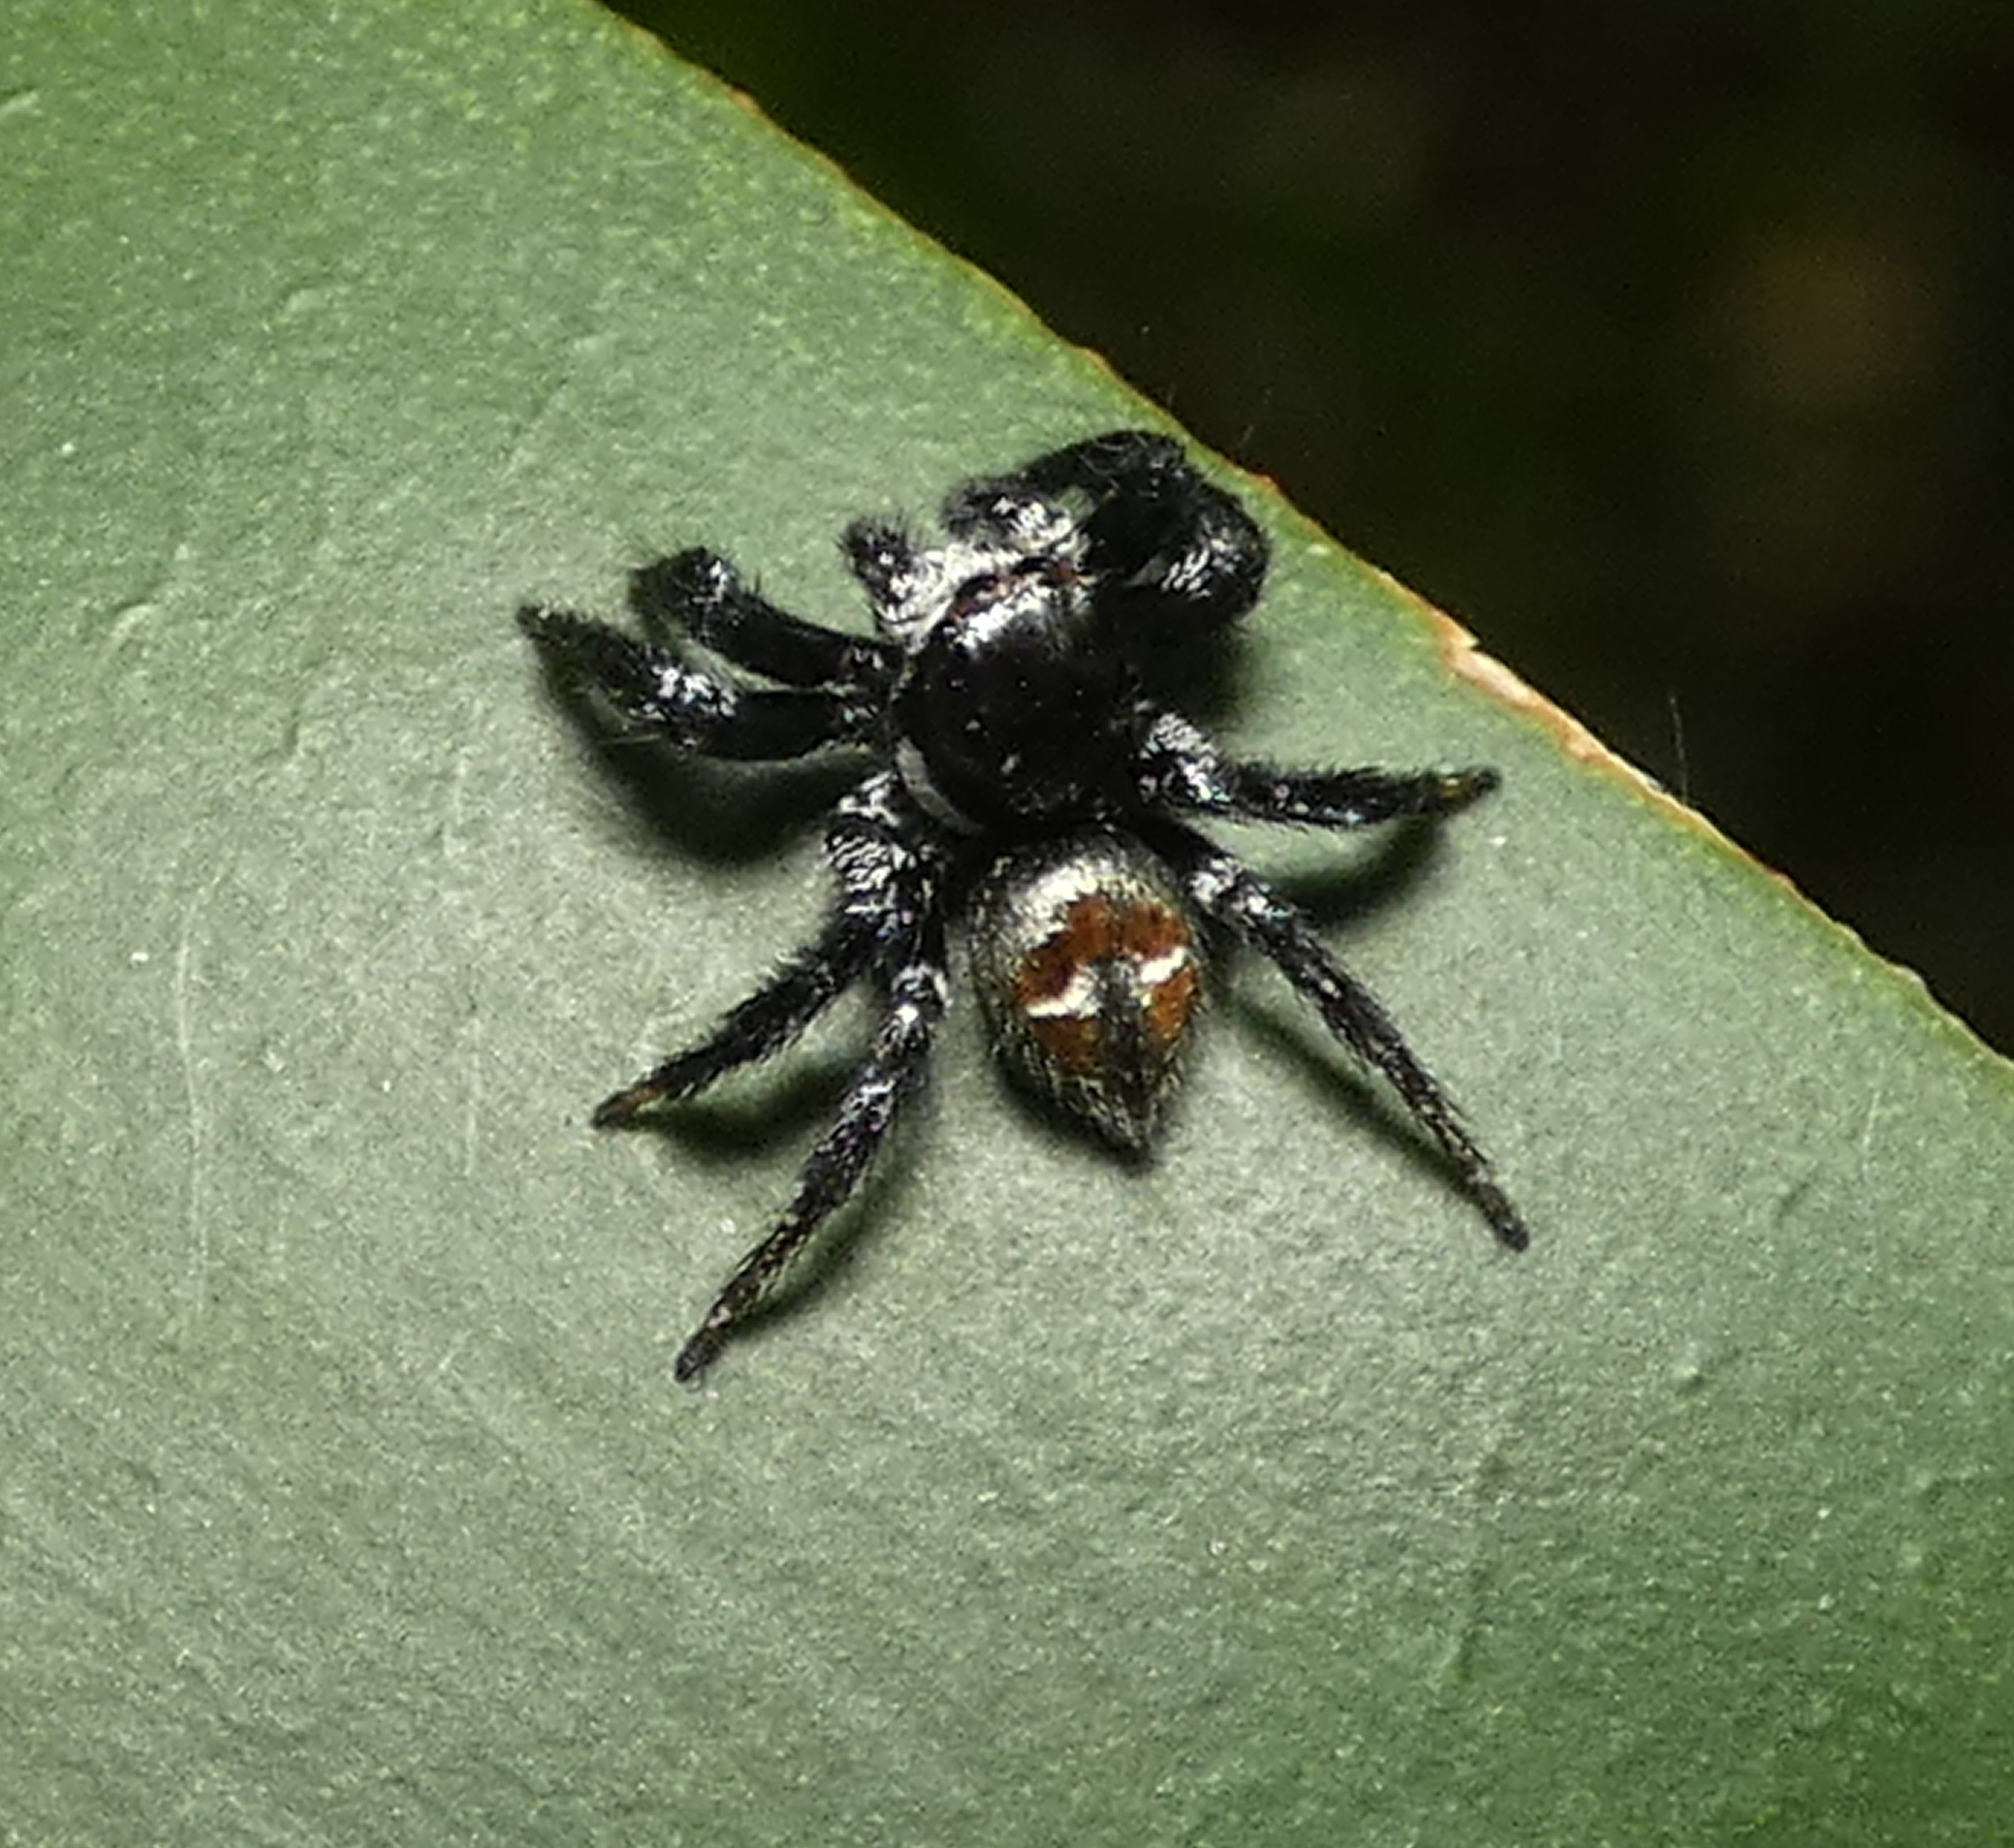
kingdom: Animalia
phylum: Arthropoda
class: Arachnida
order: Araneae
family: Salticidae
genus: Corythalia
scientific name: Corythalia spiralis
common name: Jumping spiders
